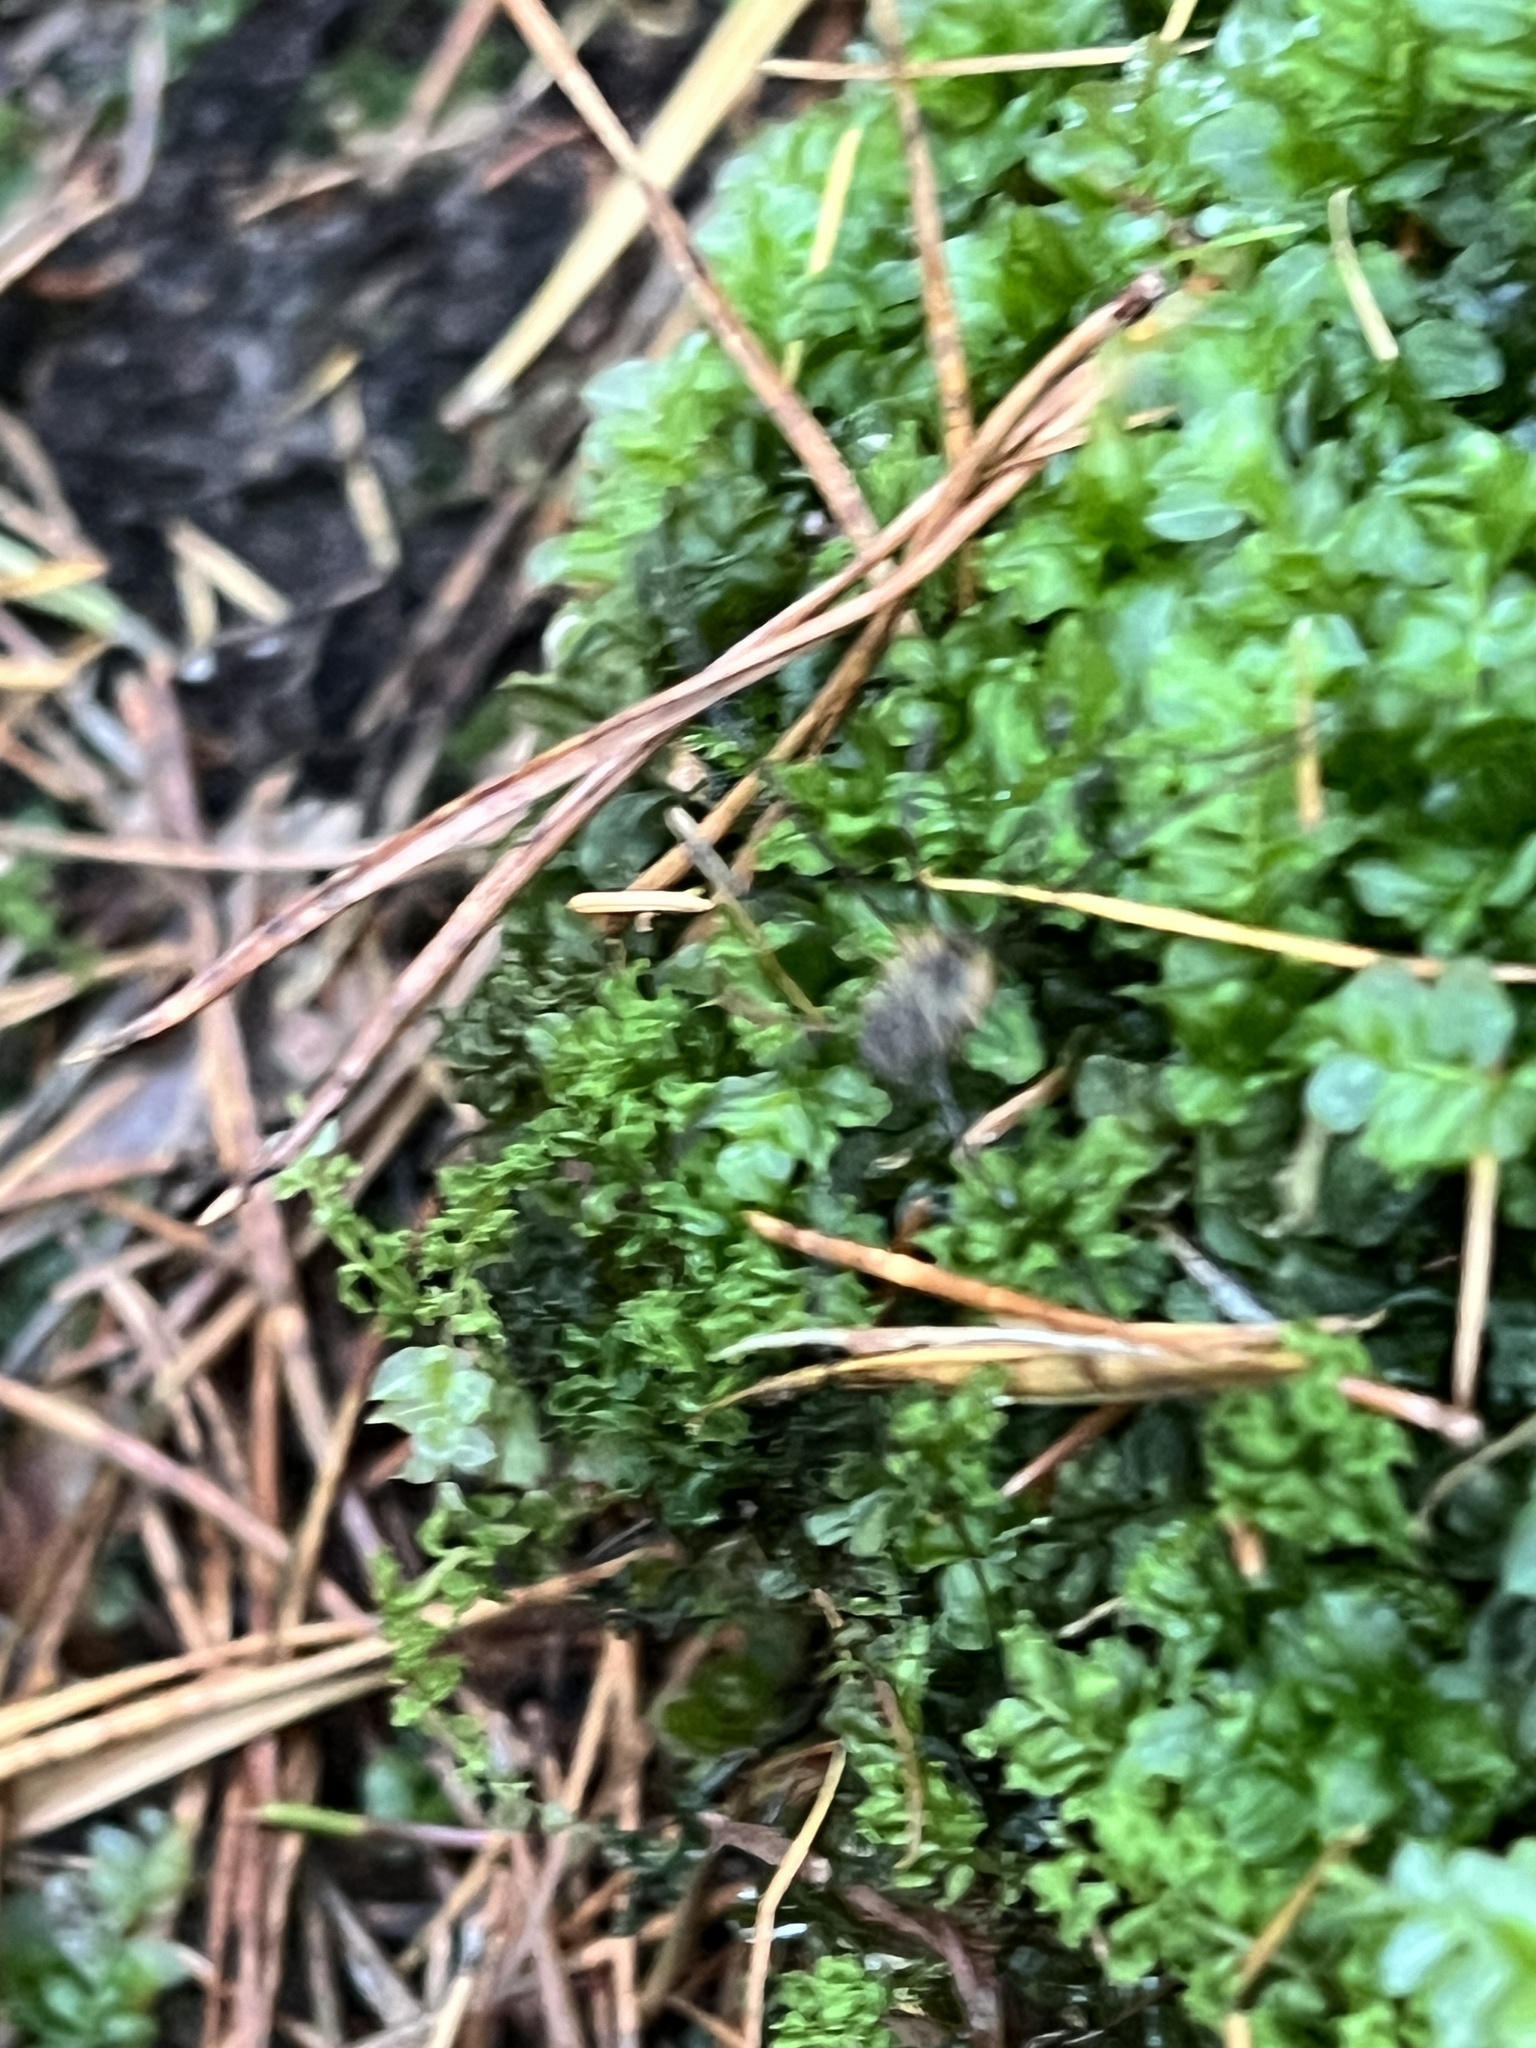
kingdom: Plantae
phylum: Bryophyta
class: Bryopsida
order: Bryales
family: Mniaceae
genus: Plagiomnium
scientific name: Plagiomnium affine
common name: Many-fruited thyme-moss
